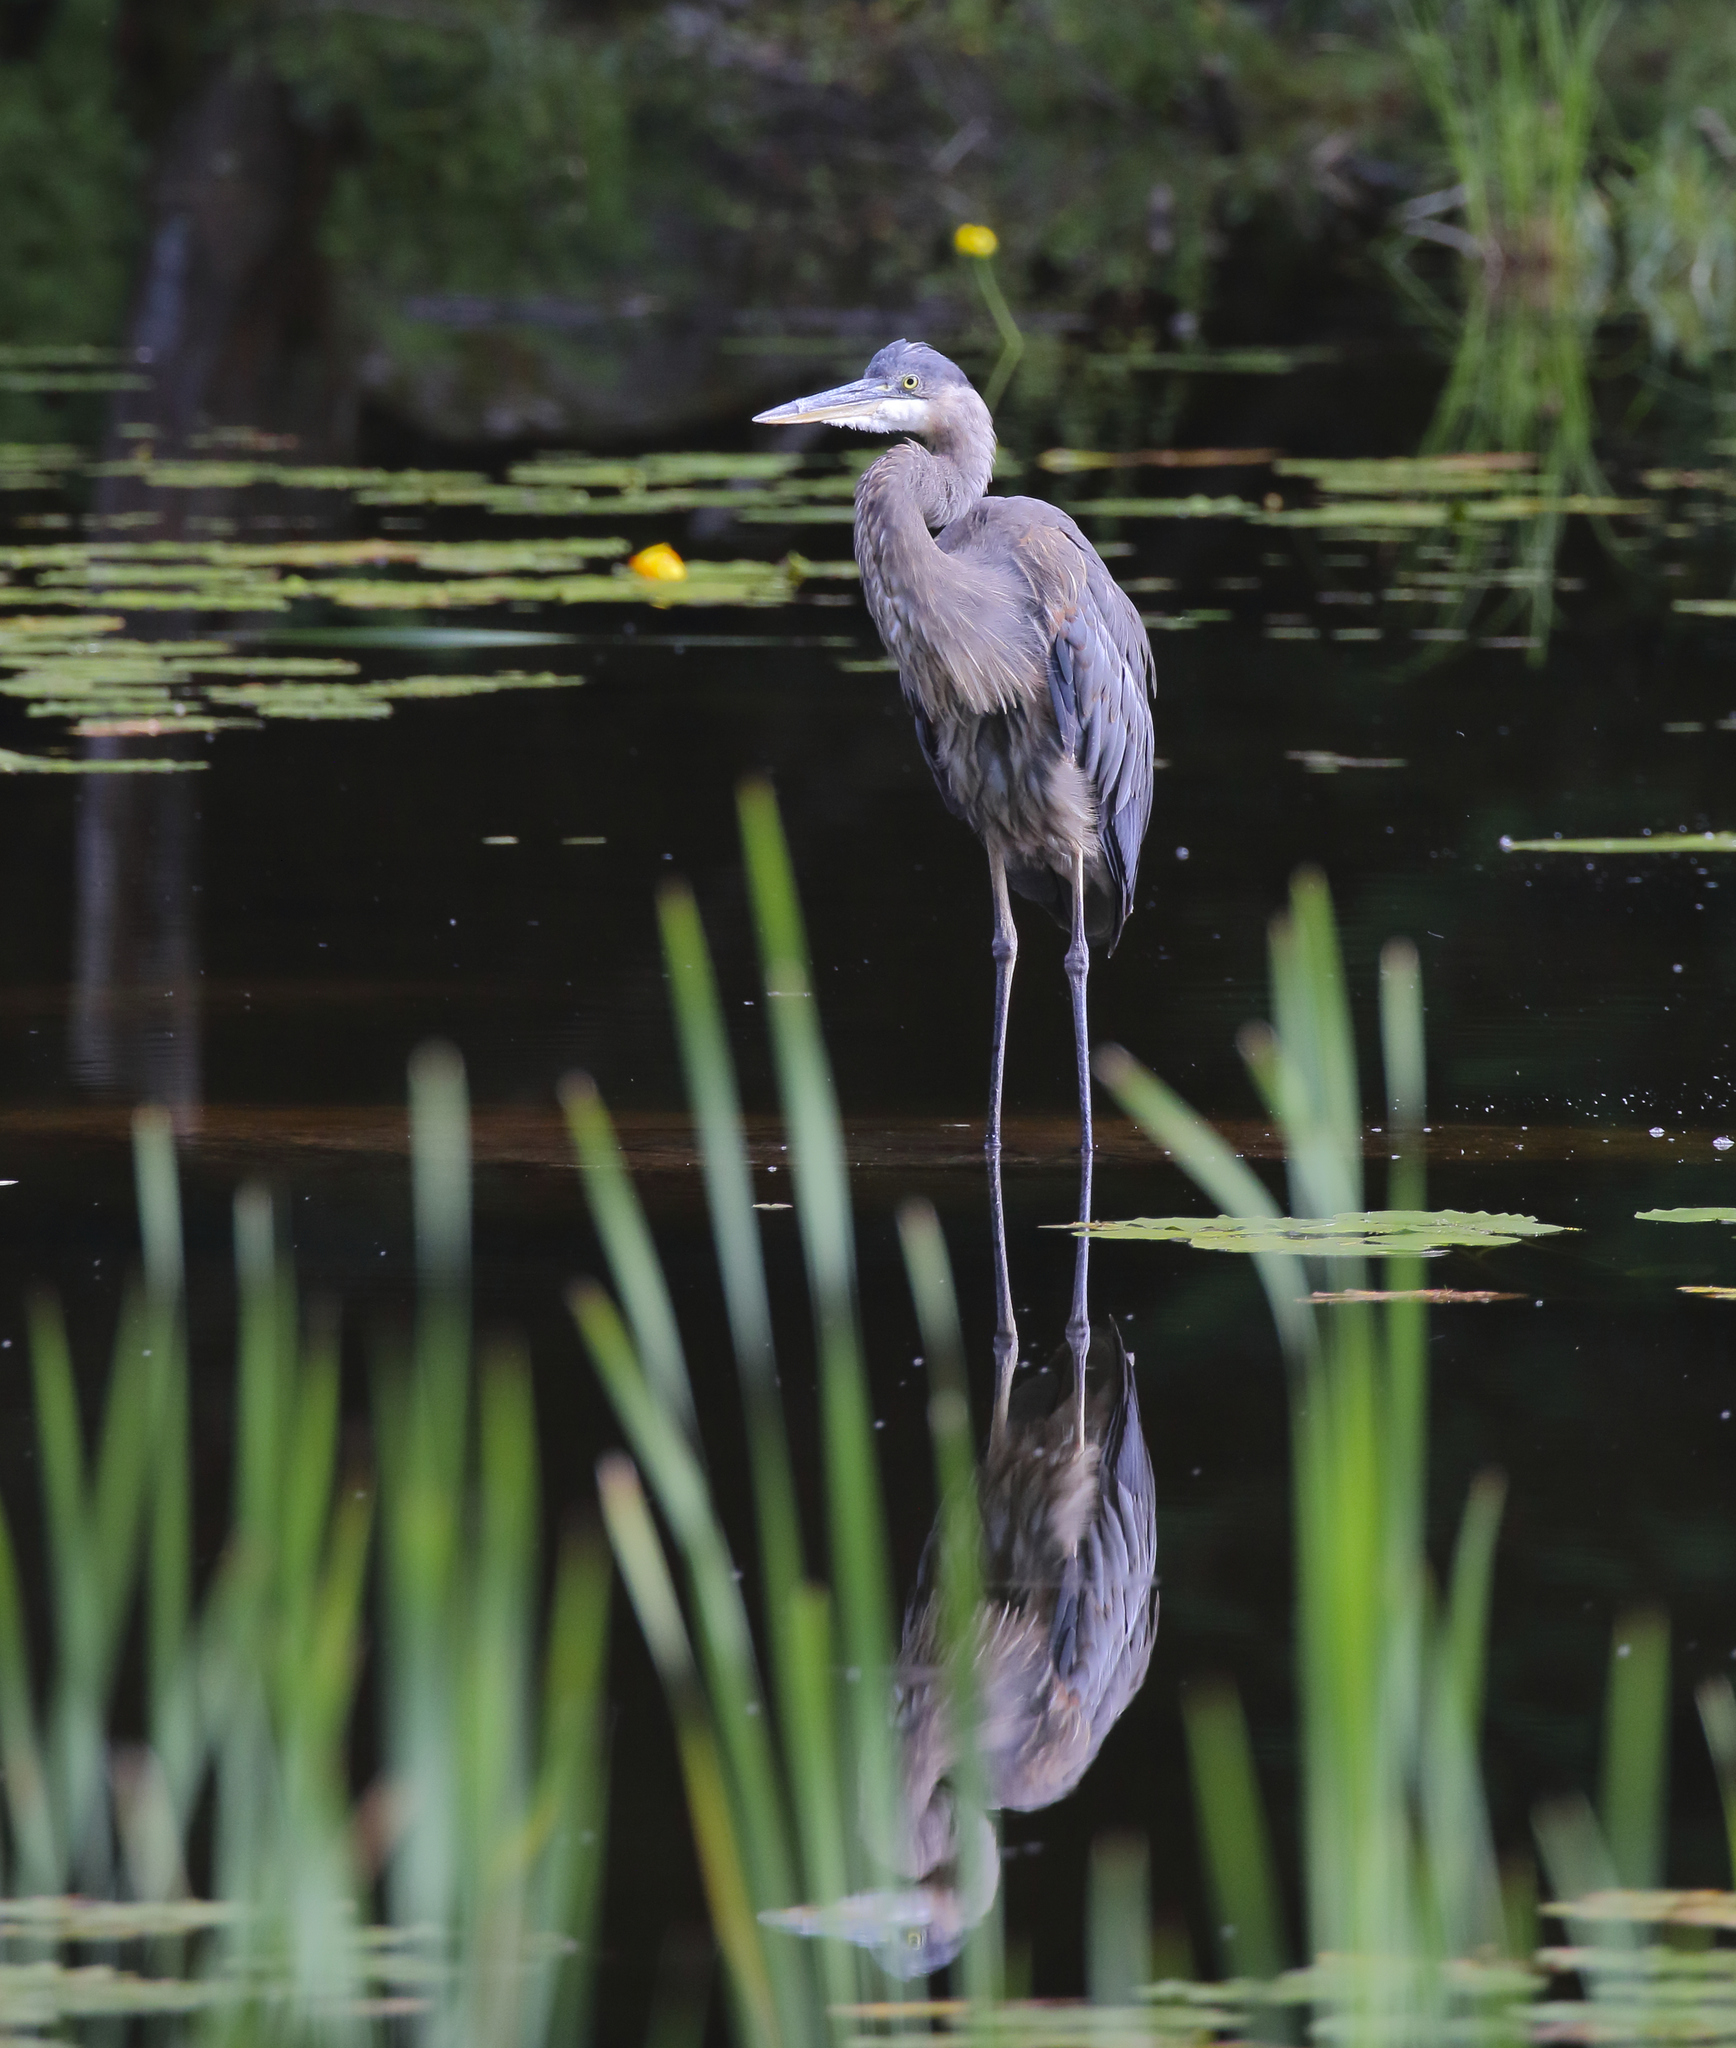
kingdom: Animalia
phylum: Chordata
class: Aves
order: Pelecaniformes
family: Ardeidae
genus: Ardea
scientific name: Ardea herodias
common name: Great blue heron
